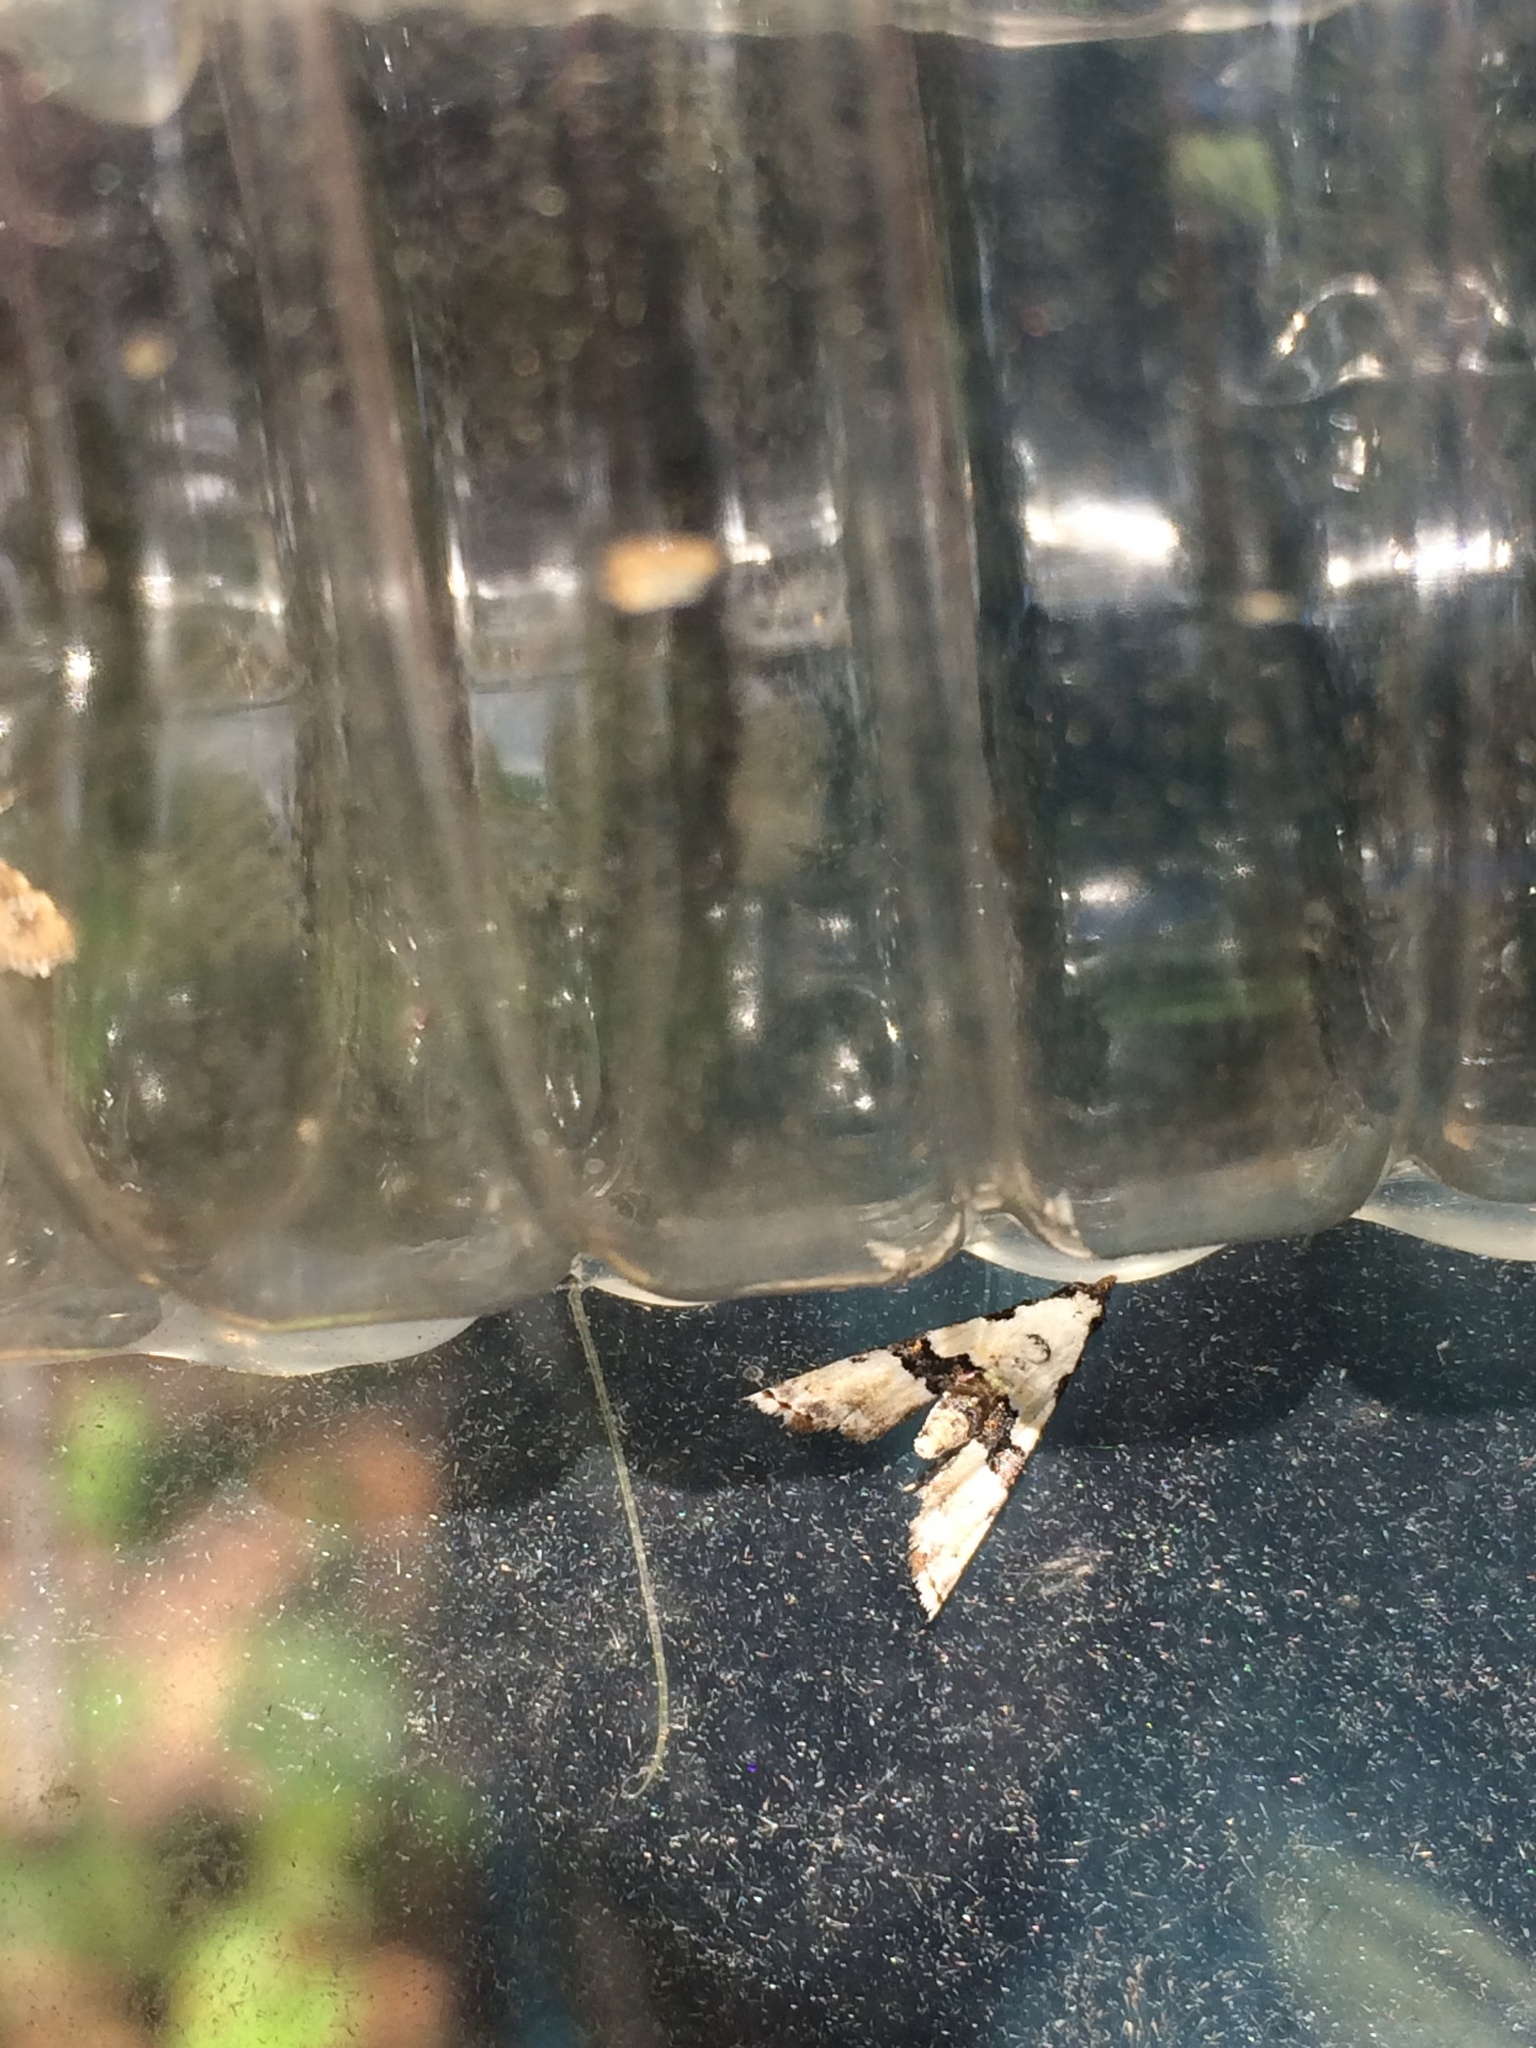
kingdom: Animalia
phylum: Arthropoda
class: Insecta
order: Lepidoptera
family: Noctuidae
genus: Nigetia
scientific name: Nigetia formosalis
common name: Thin-winged owlet
